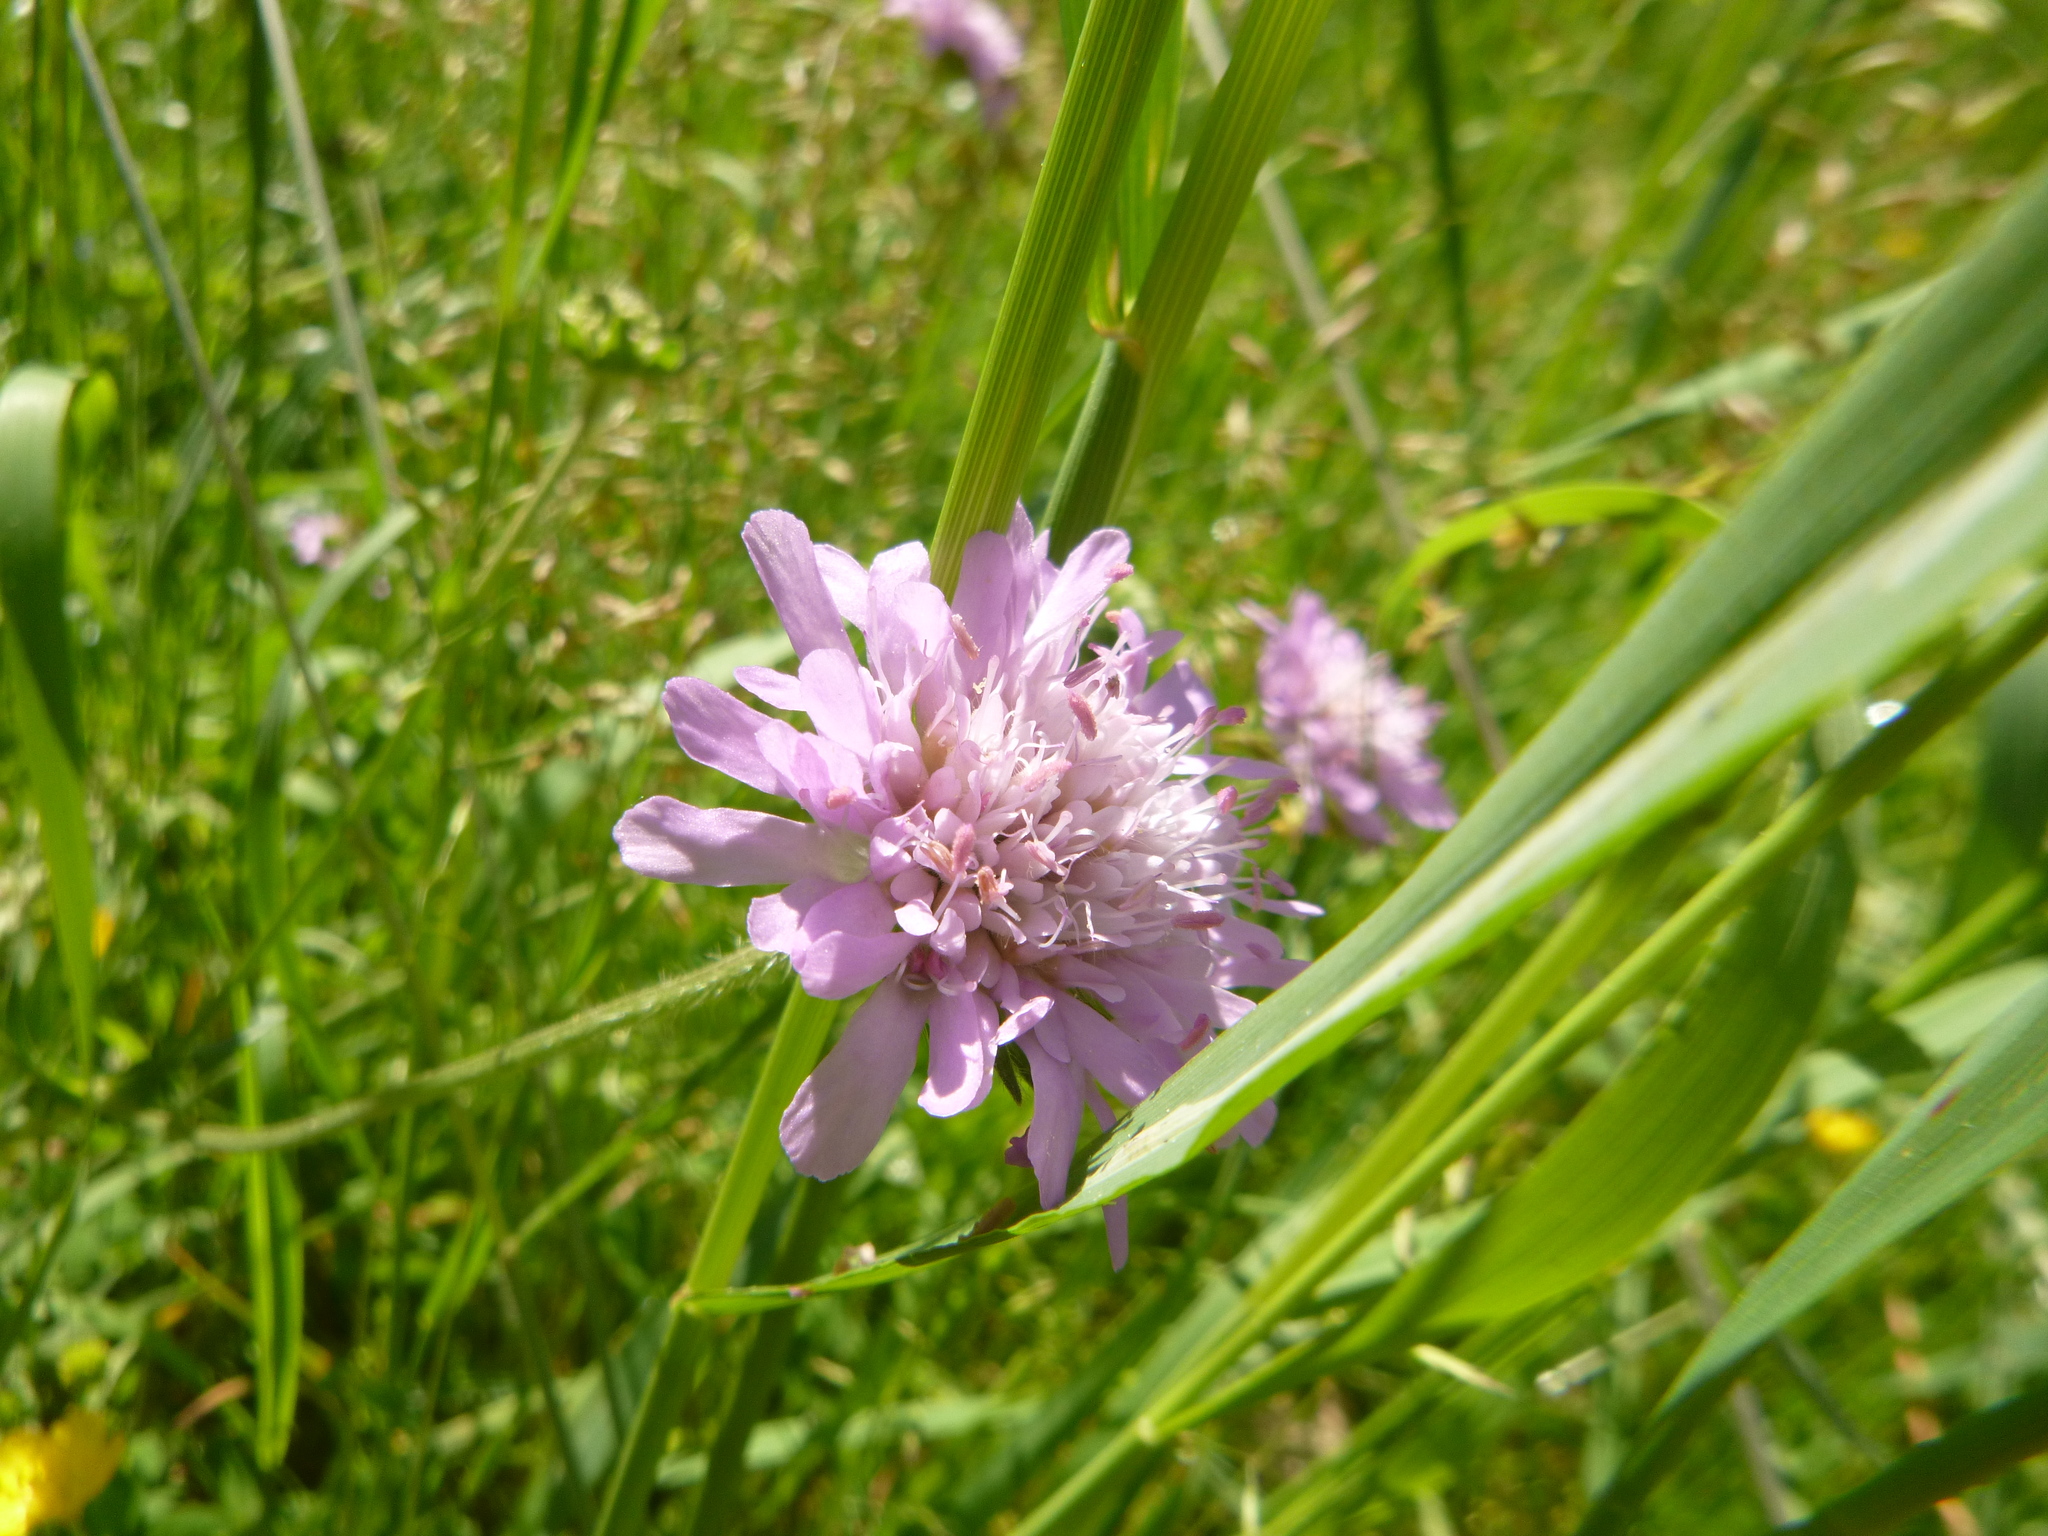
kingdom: Plantae
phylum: Tracheophyta
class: Magnoliopsida
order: Dipsacales
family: Caprifoliaceae
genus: Knautia
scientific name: Knautia arvensis
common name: Field scabiosa
